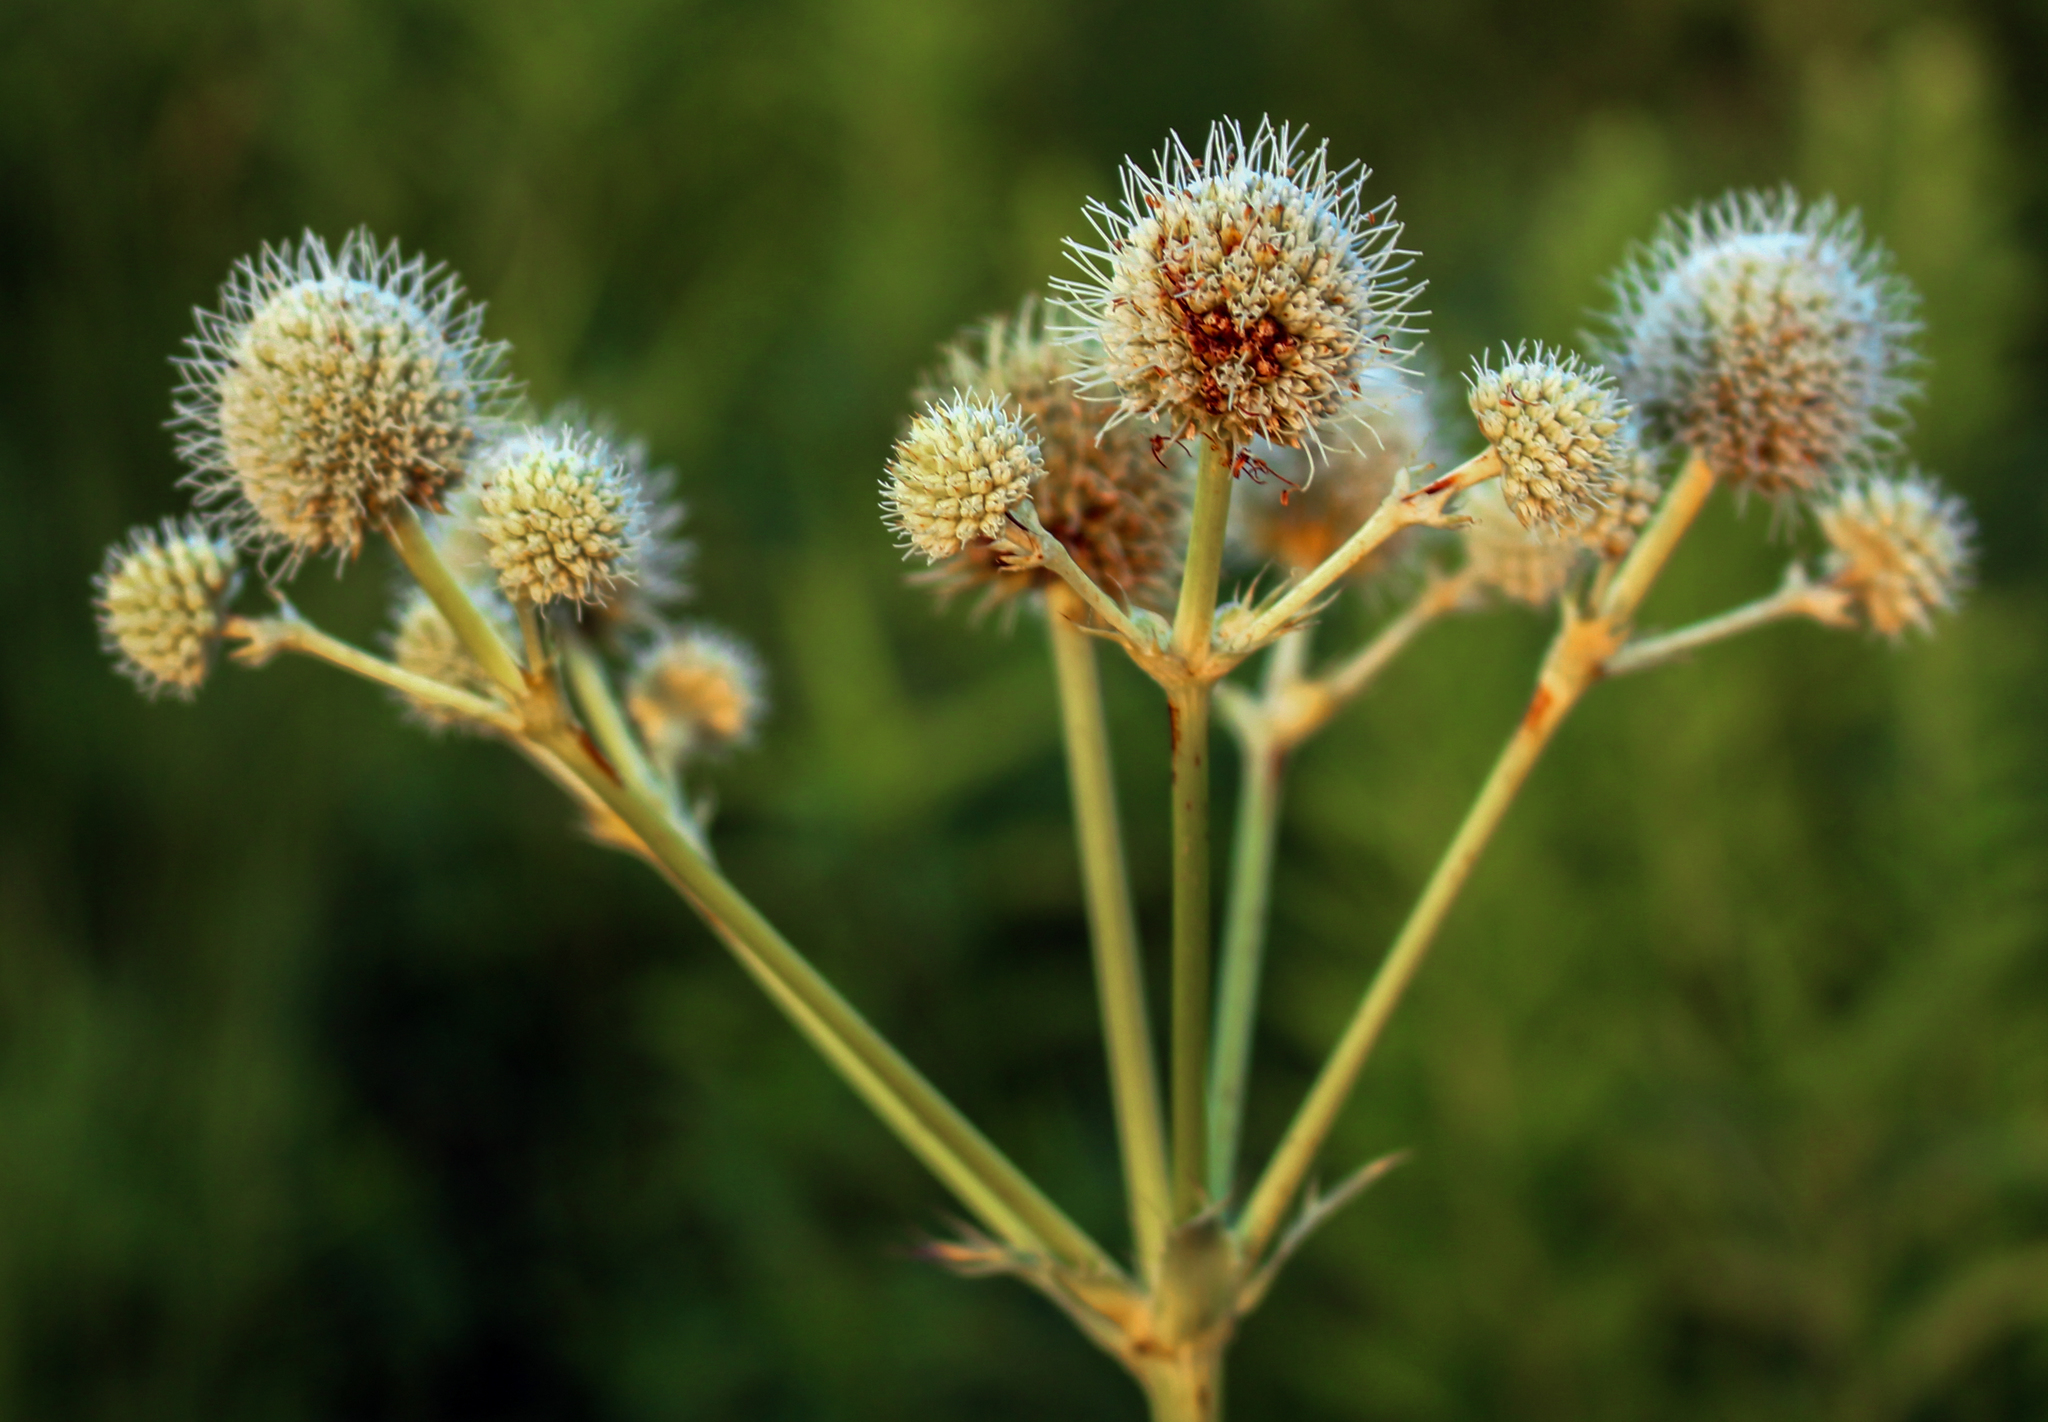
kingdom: Plantae
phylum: Tracheophyta
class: Magnoliopsida
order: Apiales
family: Apiaceae
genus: Eryngium
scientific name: Eryngium yuccifolium
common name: Button eryngo
